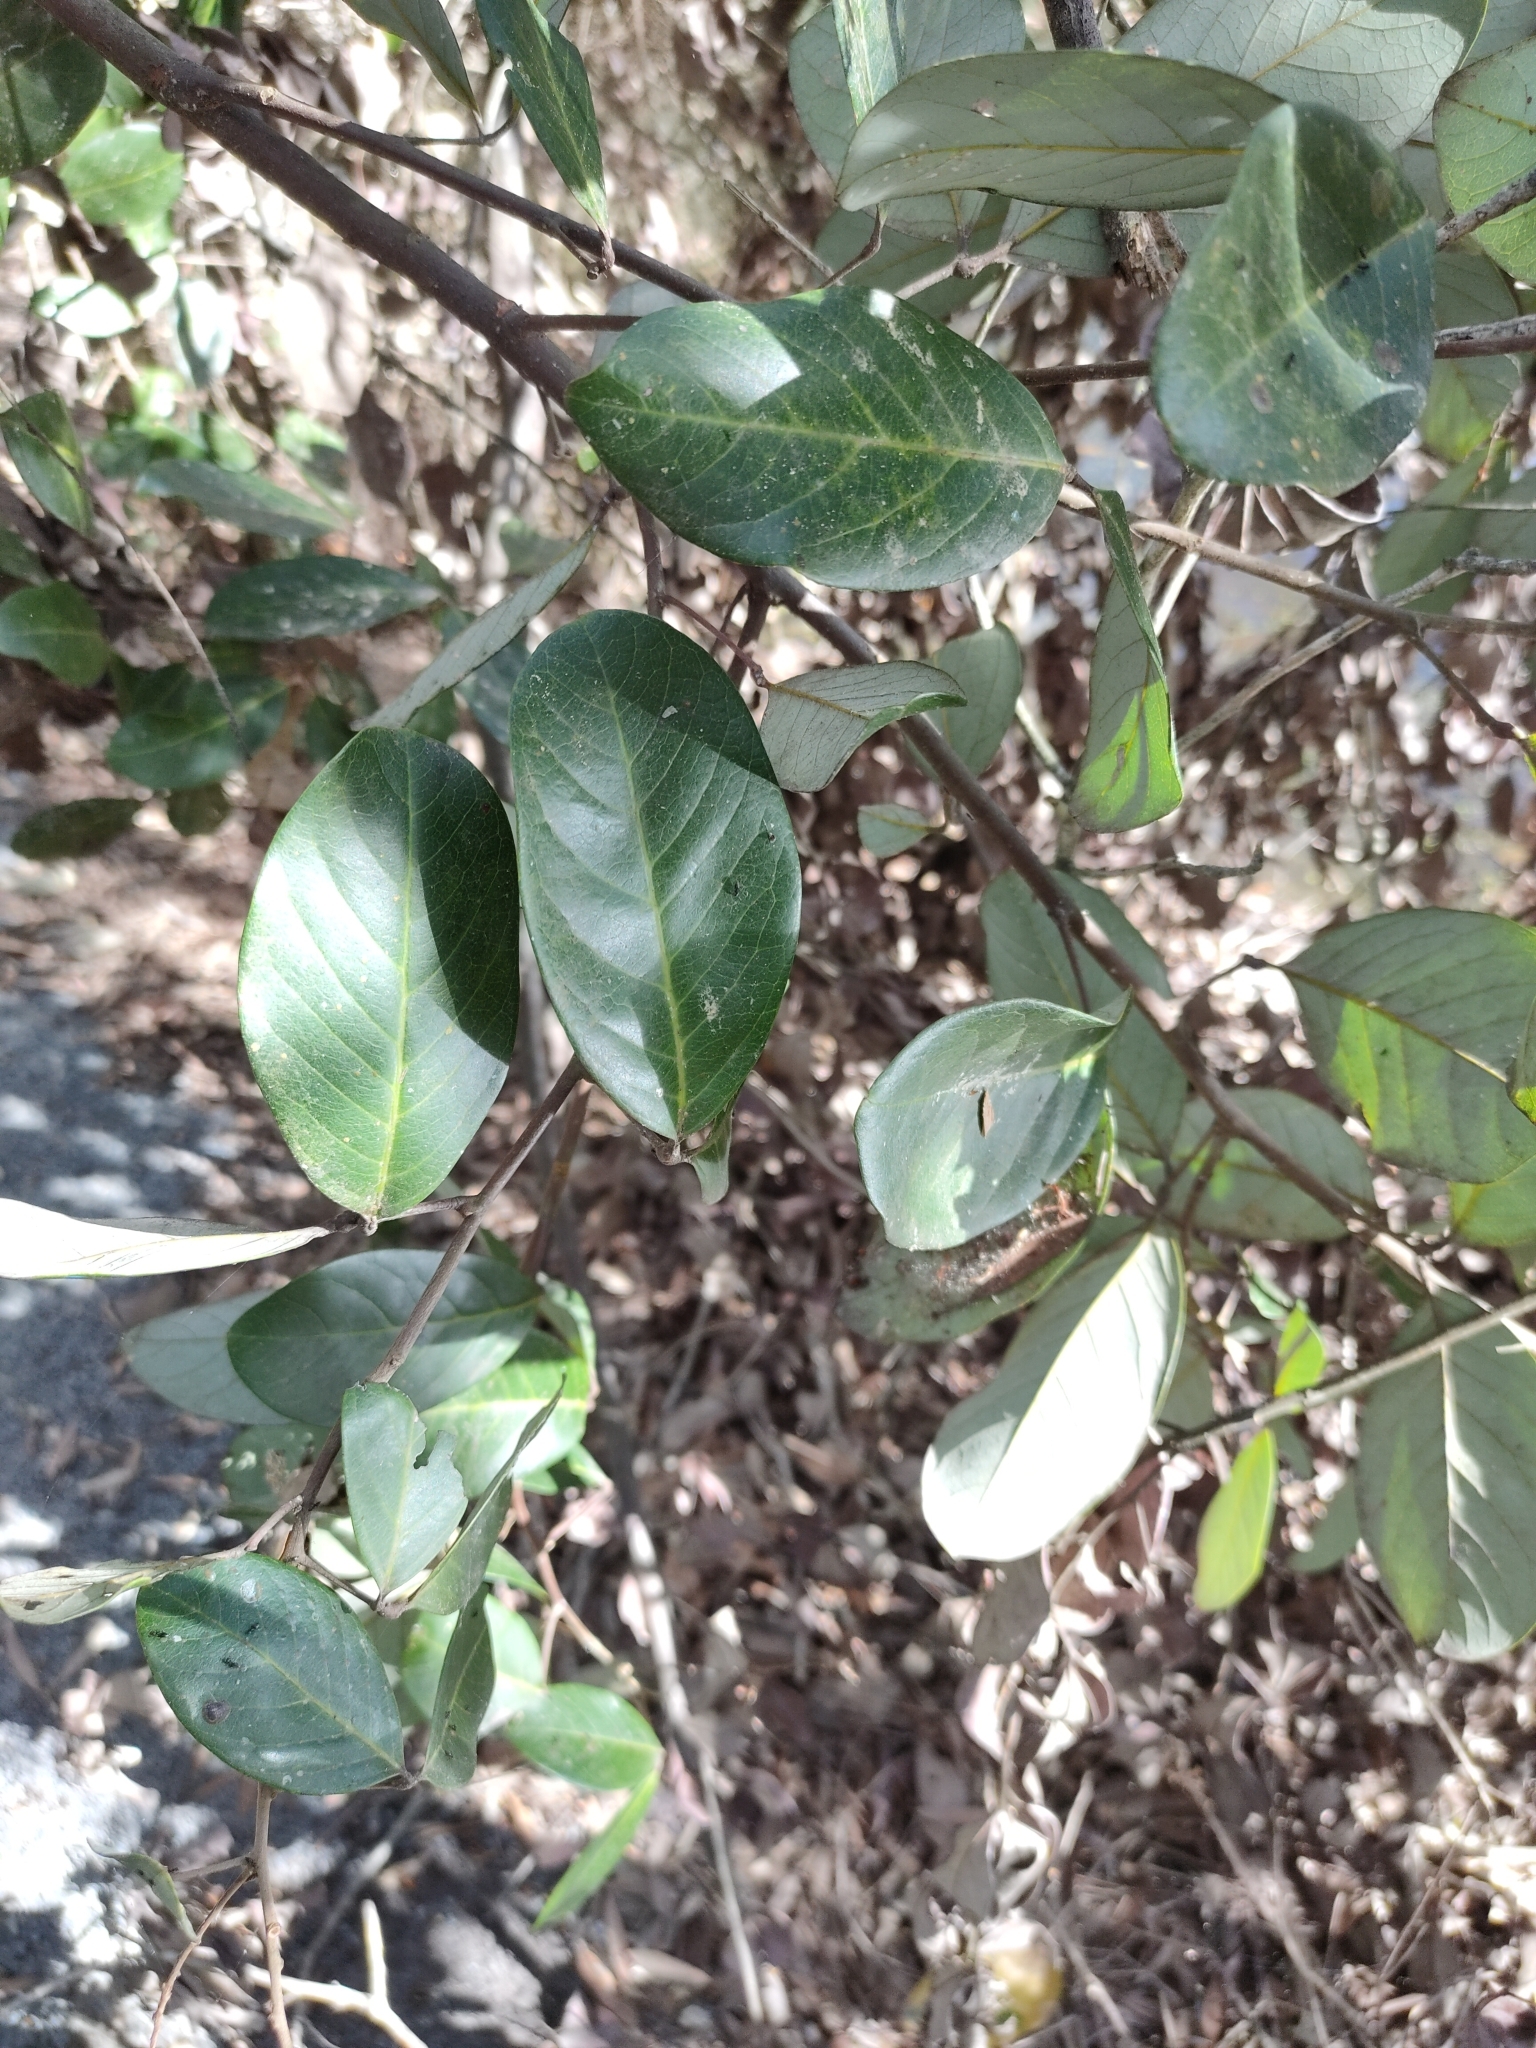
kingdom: Plantae
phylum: Tracheophyta
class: Magnoliopsida
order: Sapindales
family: Sapindaceae
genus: Alectryon
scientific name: Alectryon coriaceus
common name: Beach alectryon
